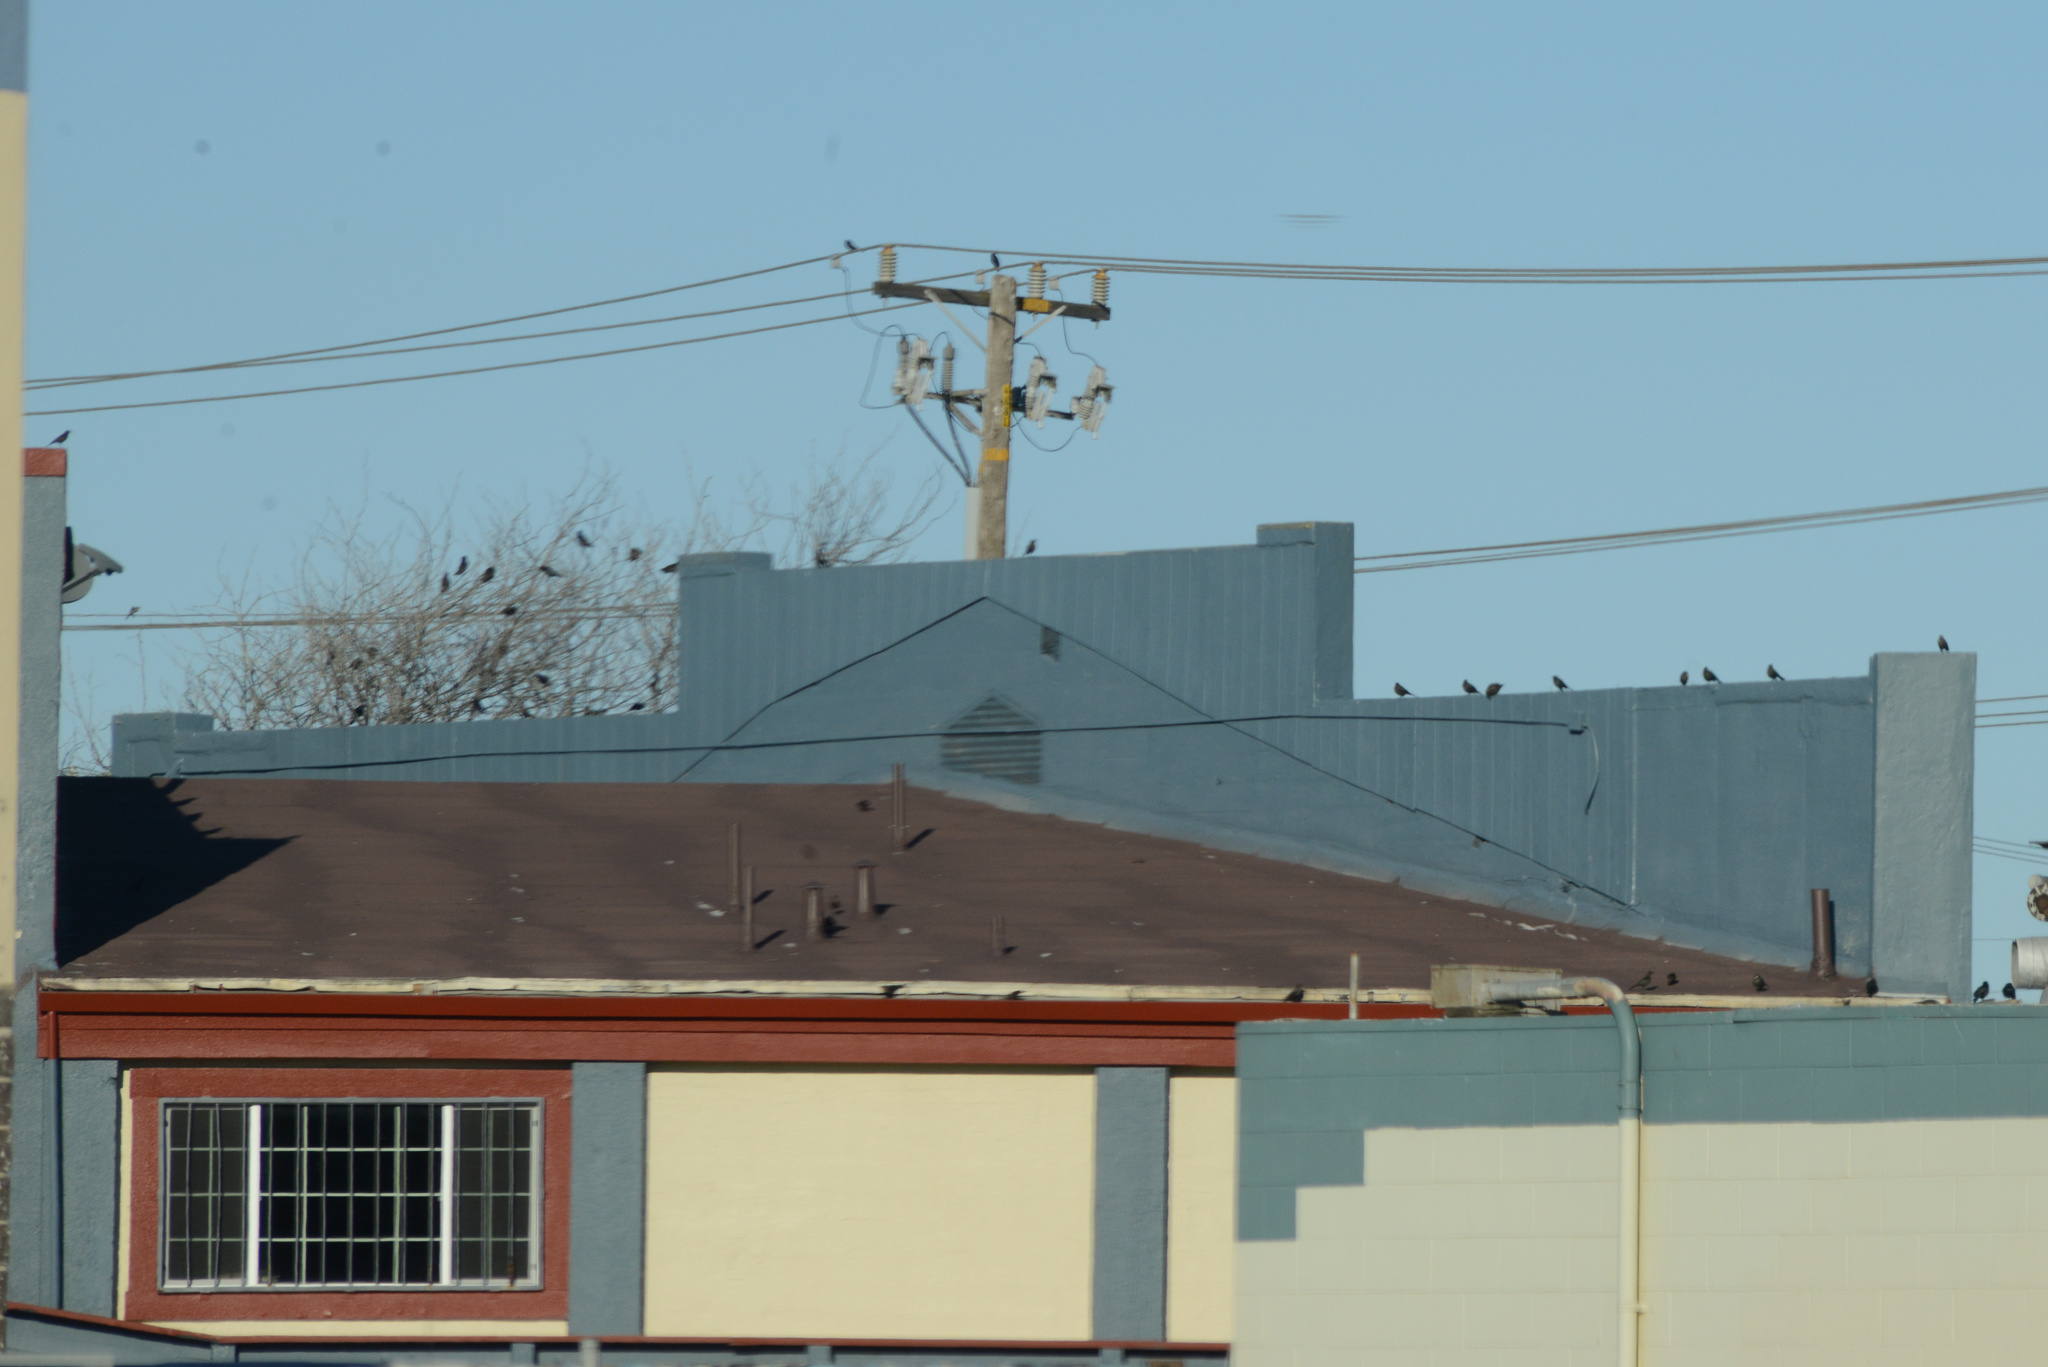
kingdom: Animalia
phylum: Chordata
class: Aves
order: Passeriformes
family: Icteridae
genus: Euphagus
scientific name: Euphagus cyanocephalus
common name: Brewer's blackbird
